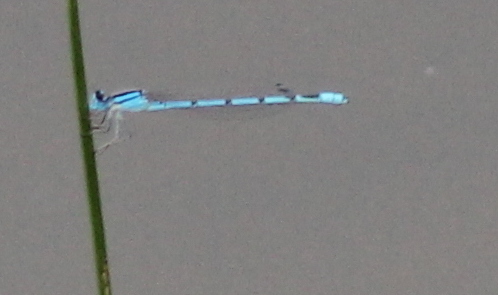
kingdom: Animalia
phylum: Arthropoda
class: Insecta
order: Odonata
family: Coenagrionidae
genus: Enallagma
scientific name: Enallagma civile
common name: Damselfly
